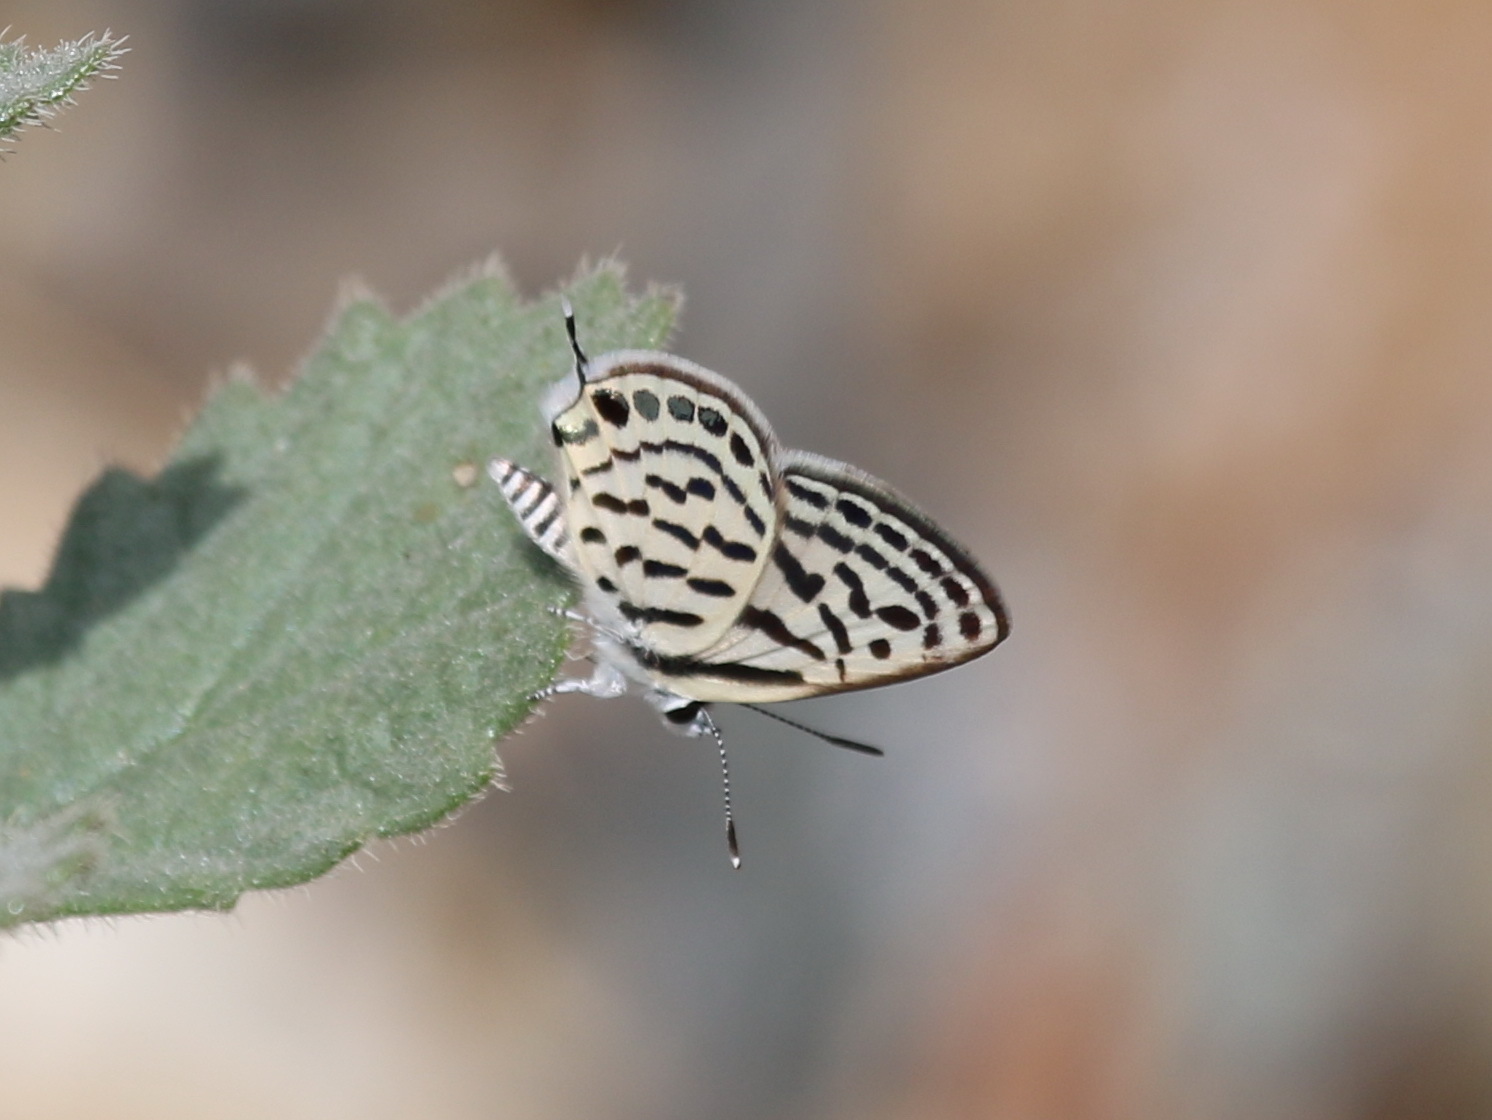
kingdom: Animalia
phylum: Arthropoda
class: Insecta
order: Lepidoptera
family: Lycaenidae
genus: Tarucus
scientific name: Tarucus rosacea
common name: Mediterranean pierrot
